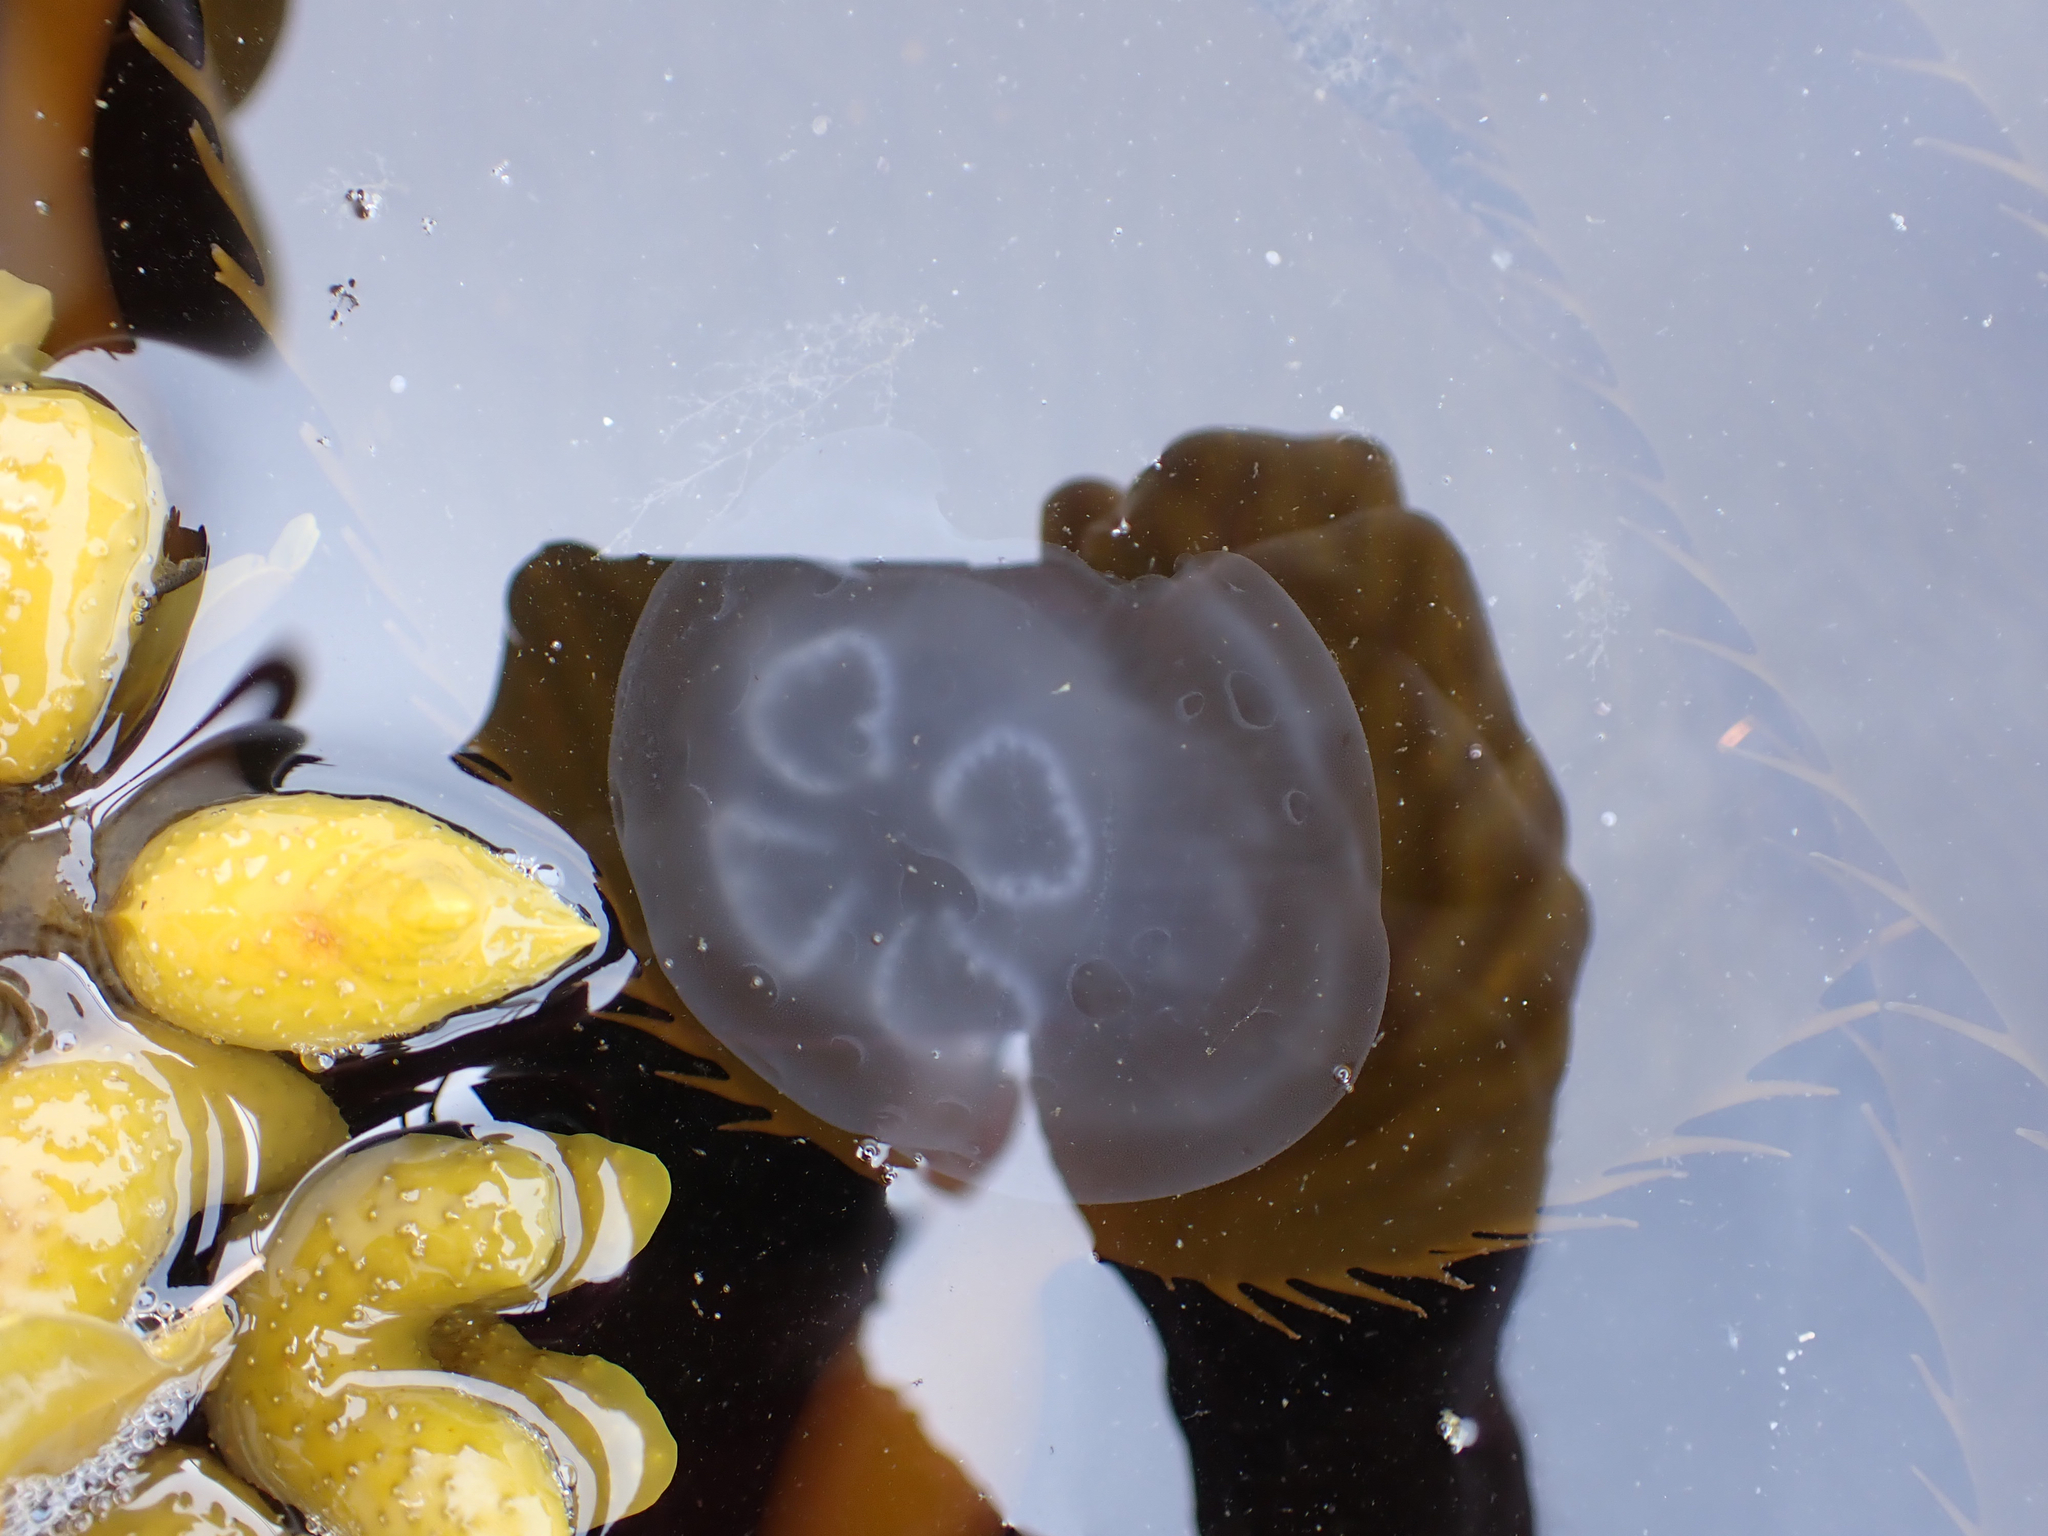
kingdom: Animalia
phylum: Cnidaria
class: Scyphozoa
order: Semaeostomeae
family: Ulmaridae
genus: Aurelia
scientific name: Aurelia labiata
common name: Pacific moon jelly
